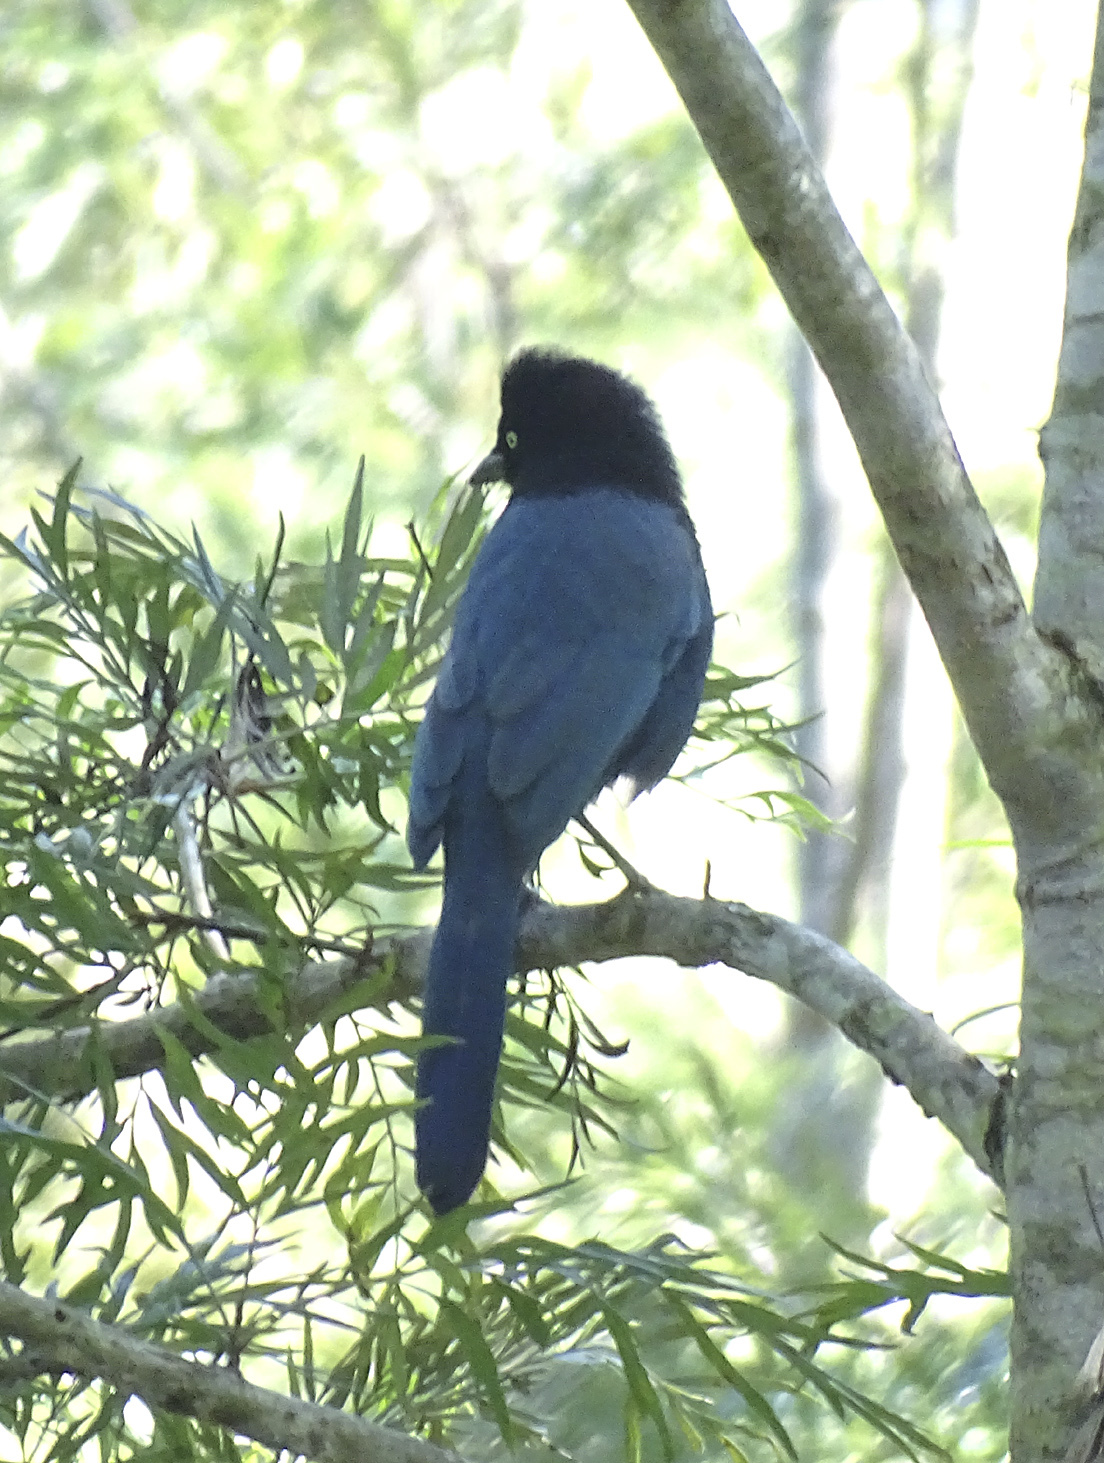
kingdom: Animalia
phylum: Chordata
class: Aves
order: Passeriformes
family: Corvidae
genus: Cyanocorax
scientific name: Cyanocorax melanocyaneus
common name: Bushy-crested jay
